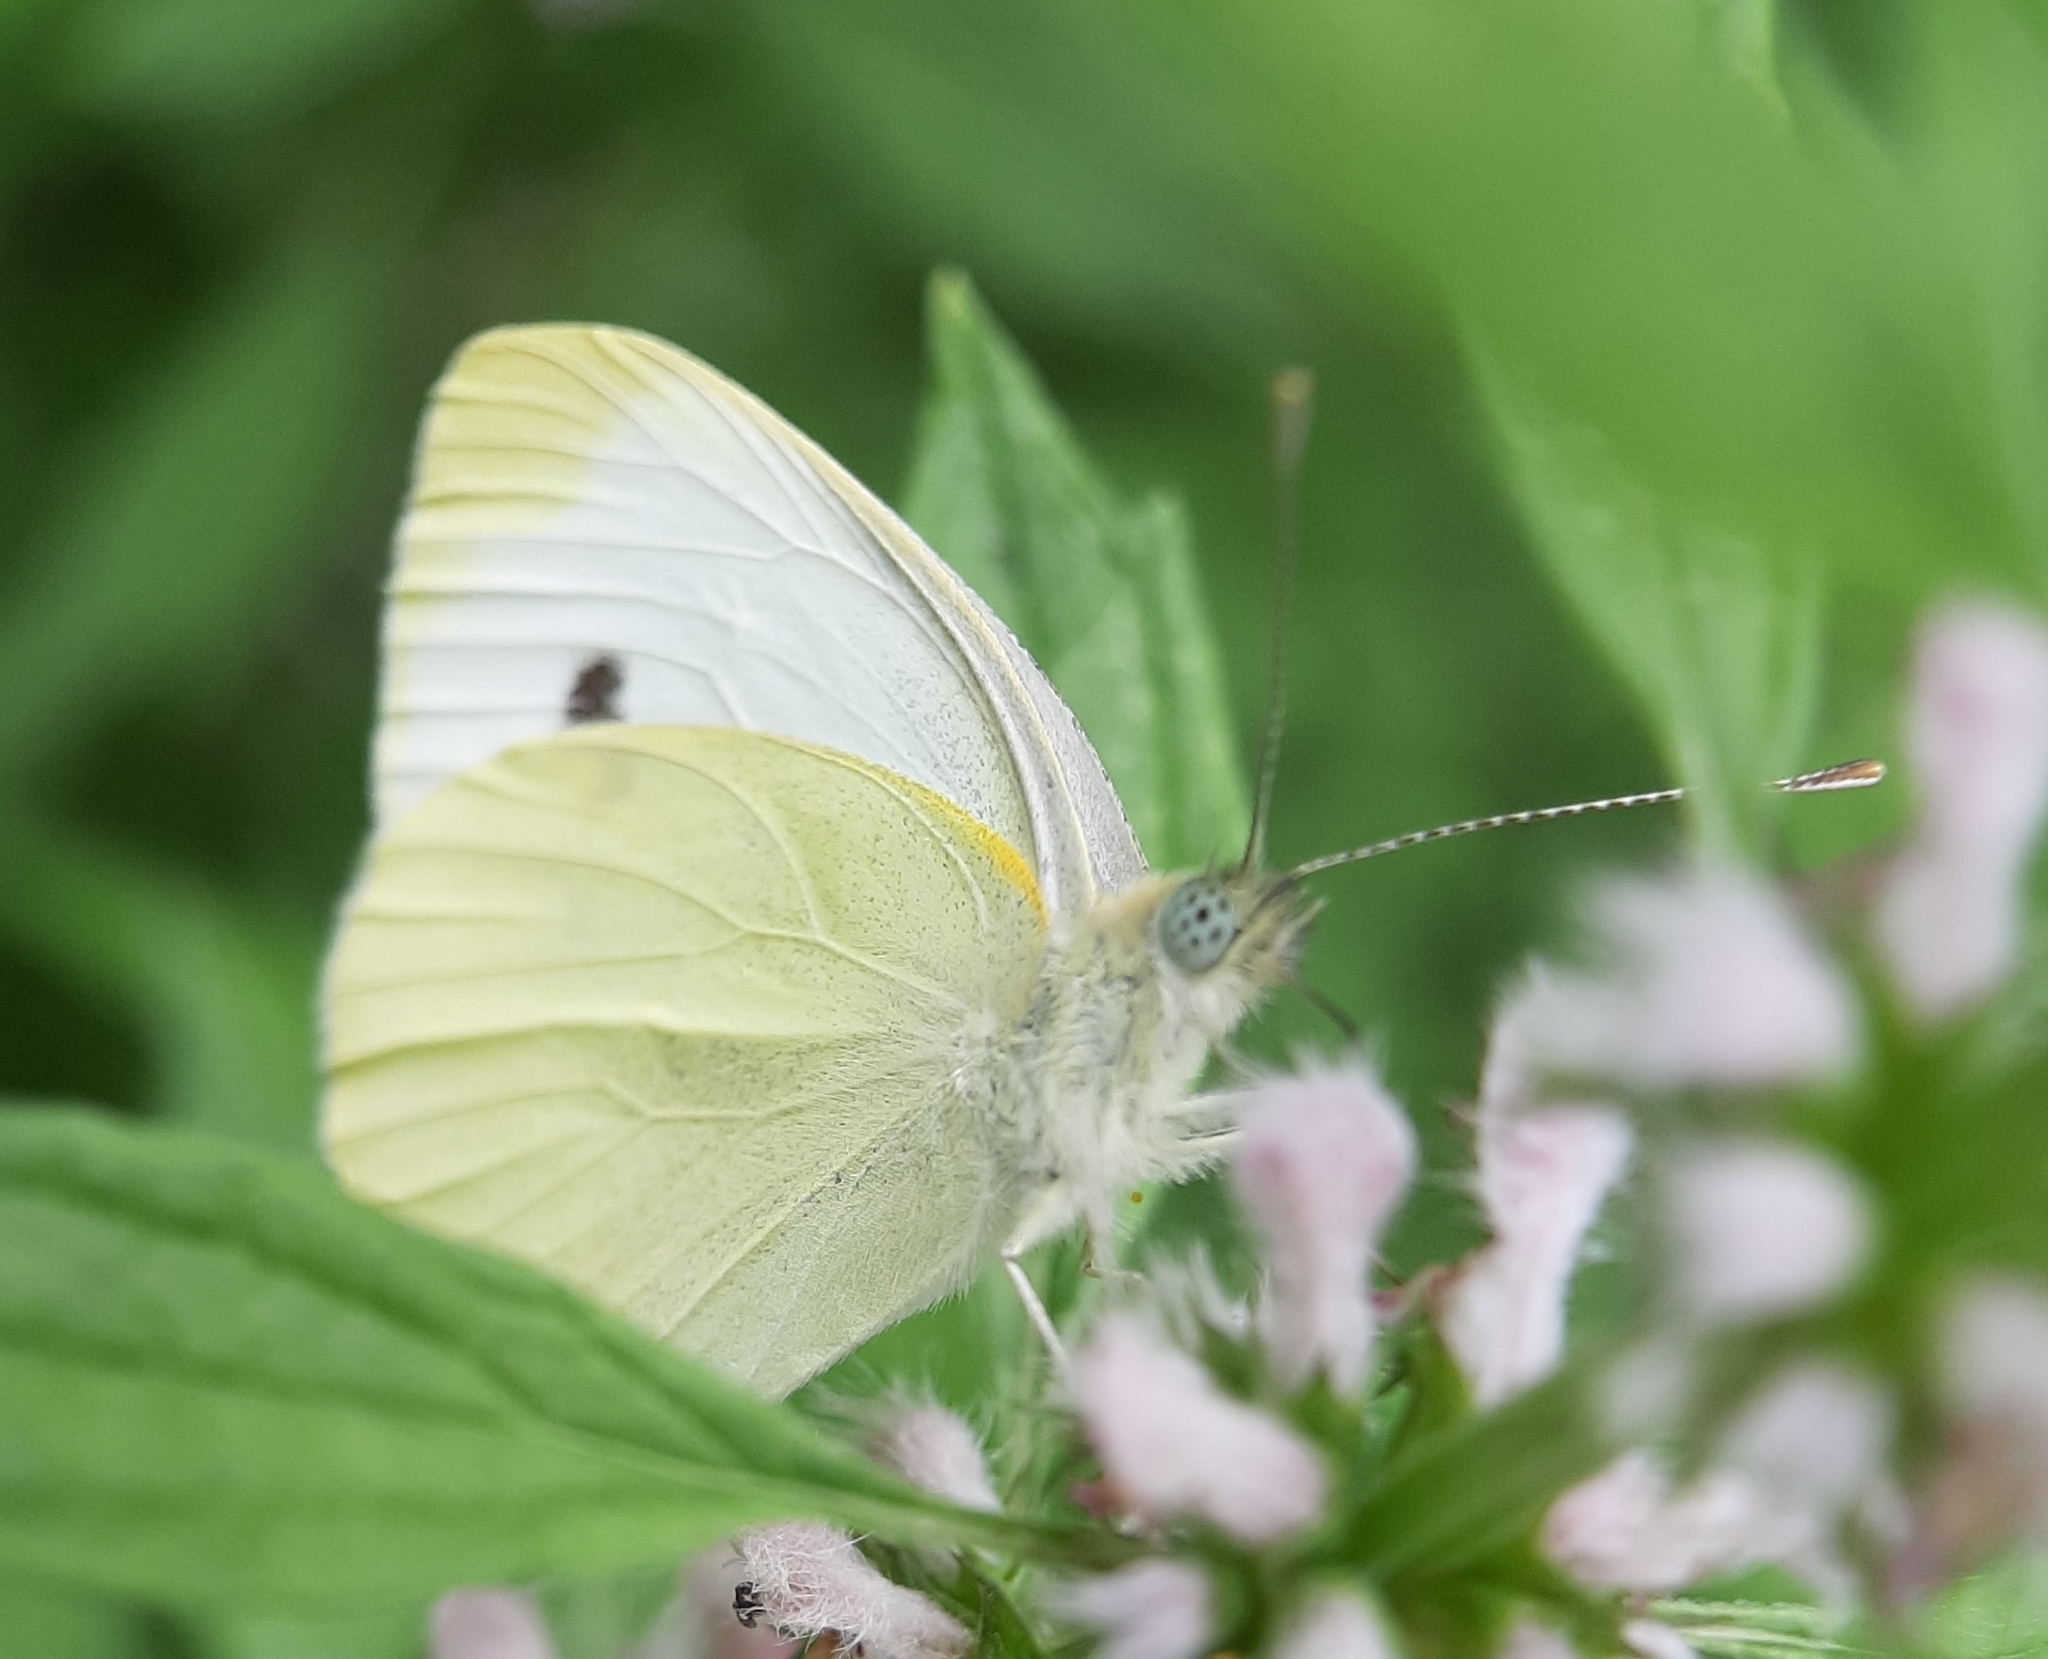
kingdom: Animalia
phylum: Arthropoda
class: Insecta
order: Lepidoptera
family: Pieridae
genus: Pieris
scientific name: Pieris rapae
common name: Small white
